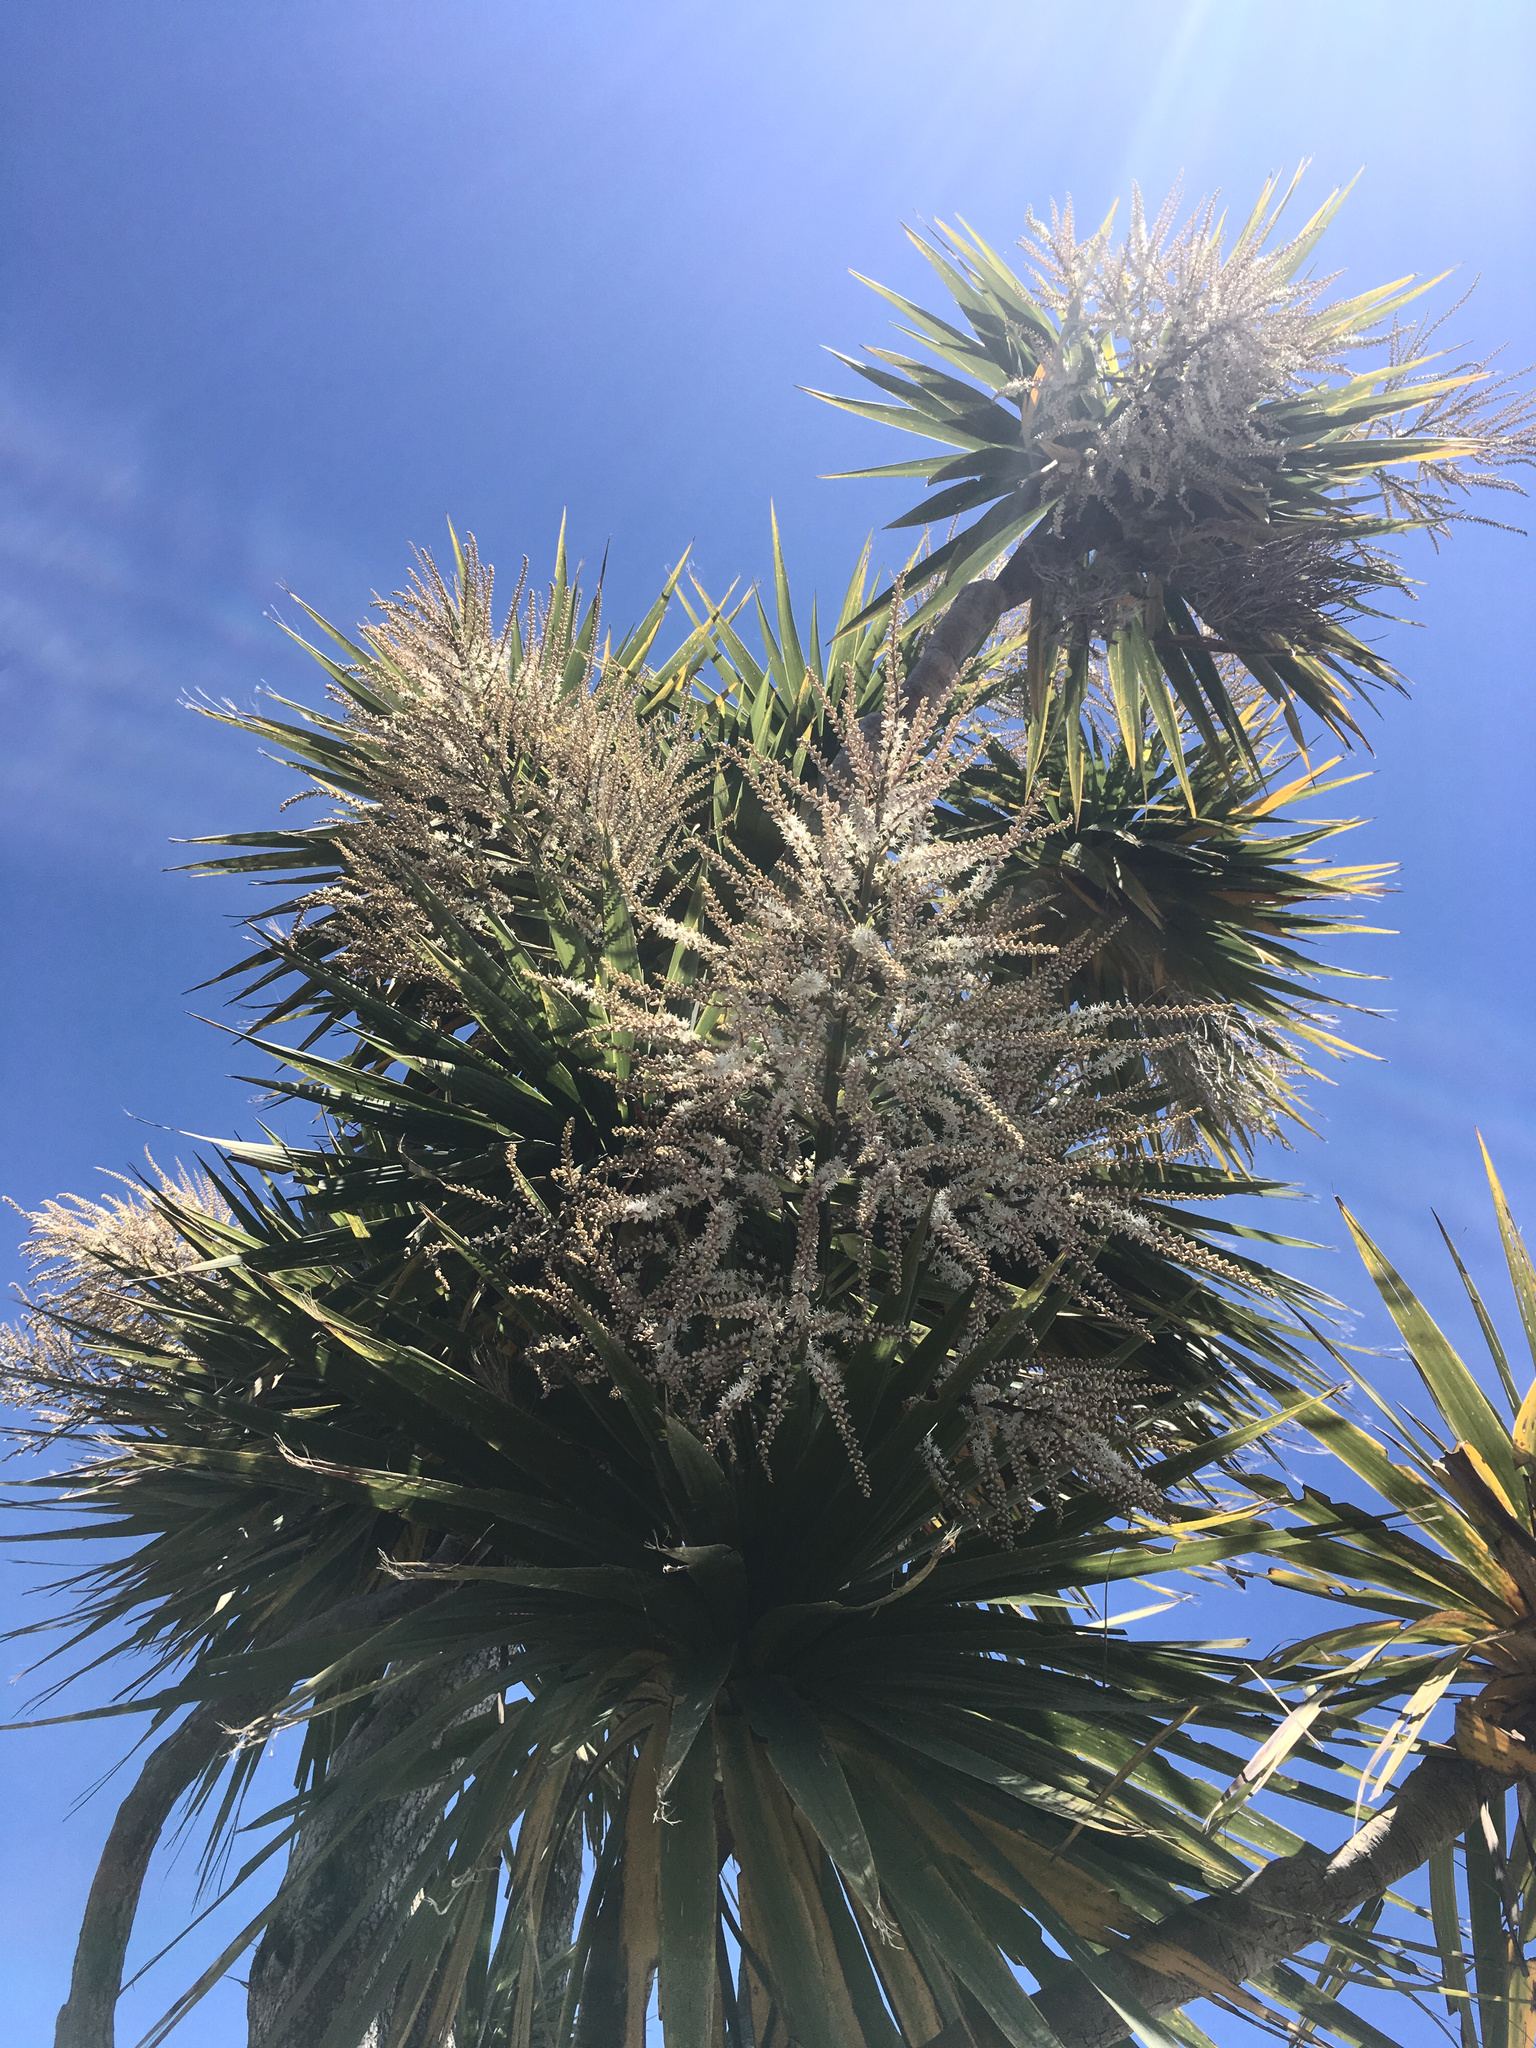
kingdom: Plantae
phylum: Tracheophyta
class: Liliopsida
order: Asparagales
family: Asparagaceae
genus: Cordyline
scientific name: Cordyline australis
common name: Cabbage-palm
